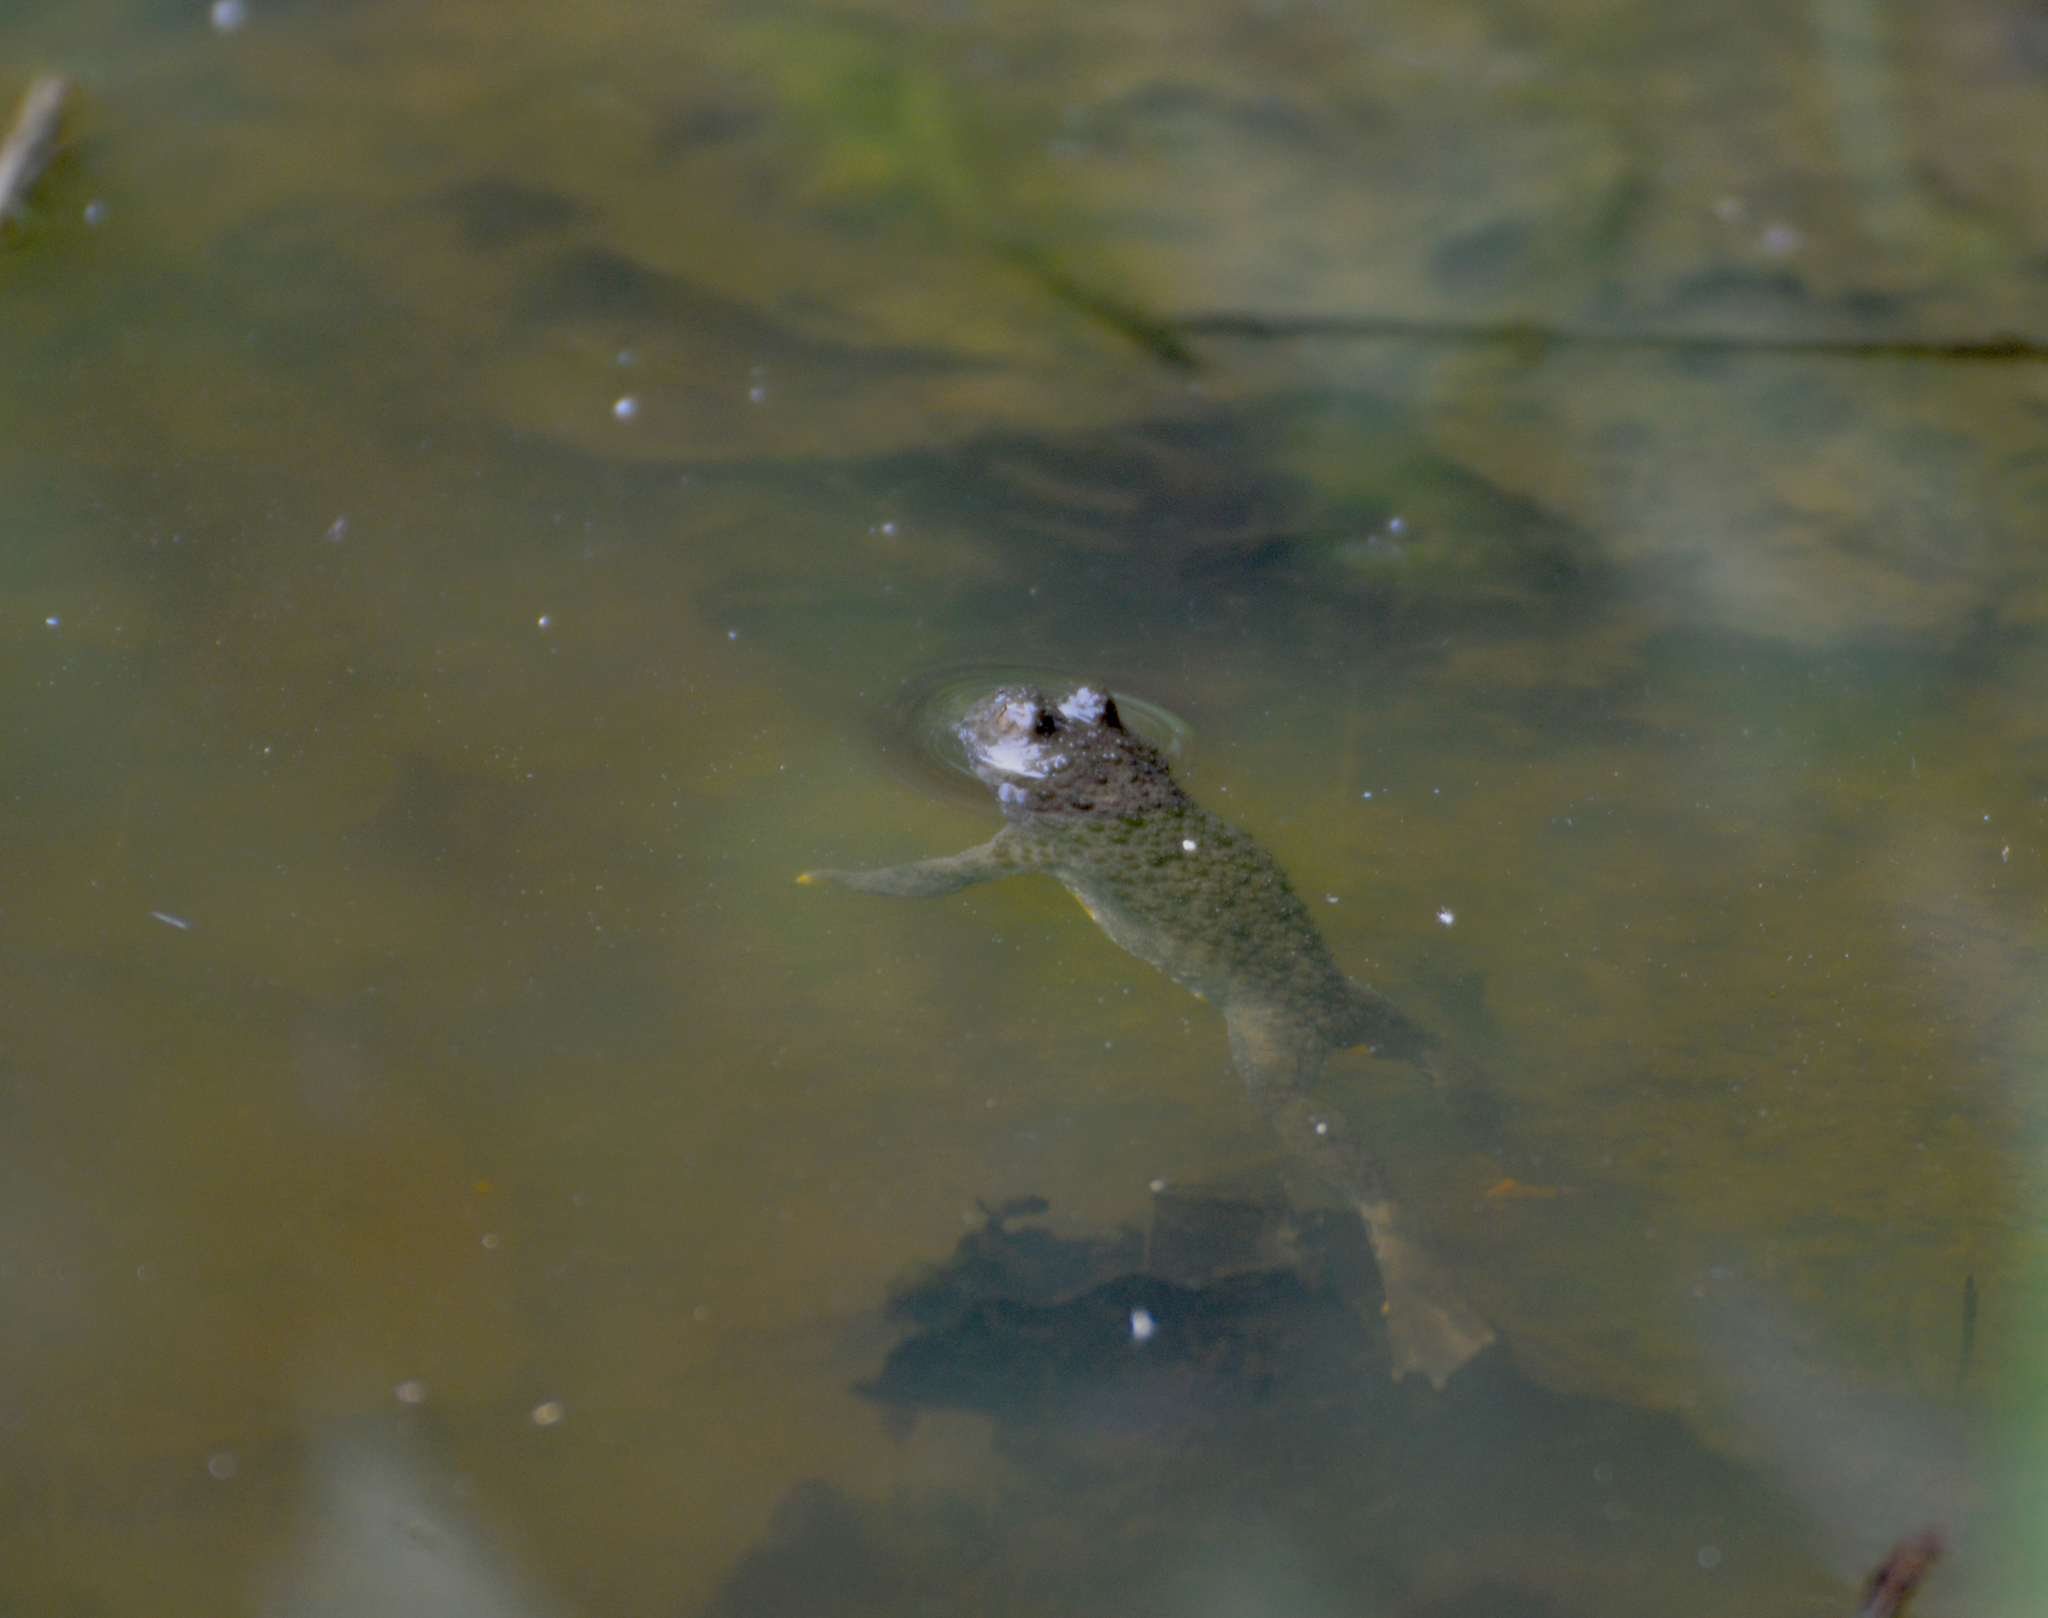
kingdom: Animalia
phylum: Chordata
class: Amphibia
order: Anura
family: Bombinatoridae
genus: Bombina
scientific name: Bombina variegata
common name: Yellow-bellied toad
